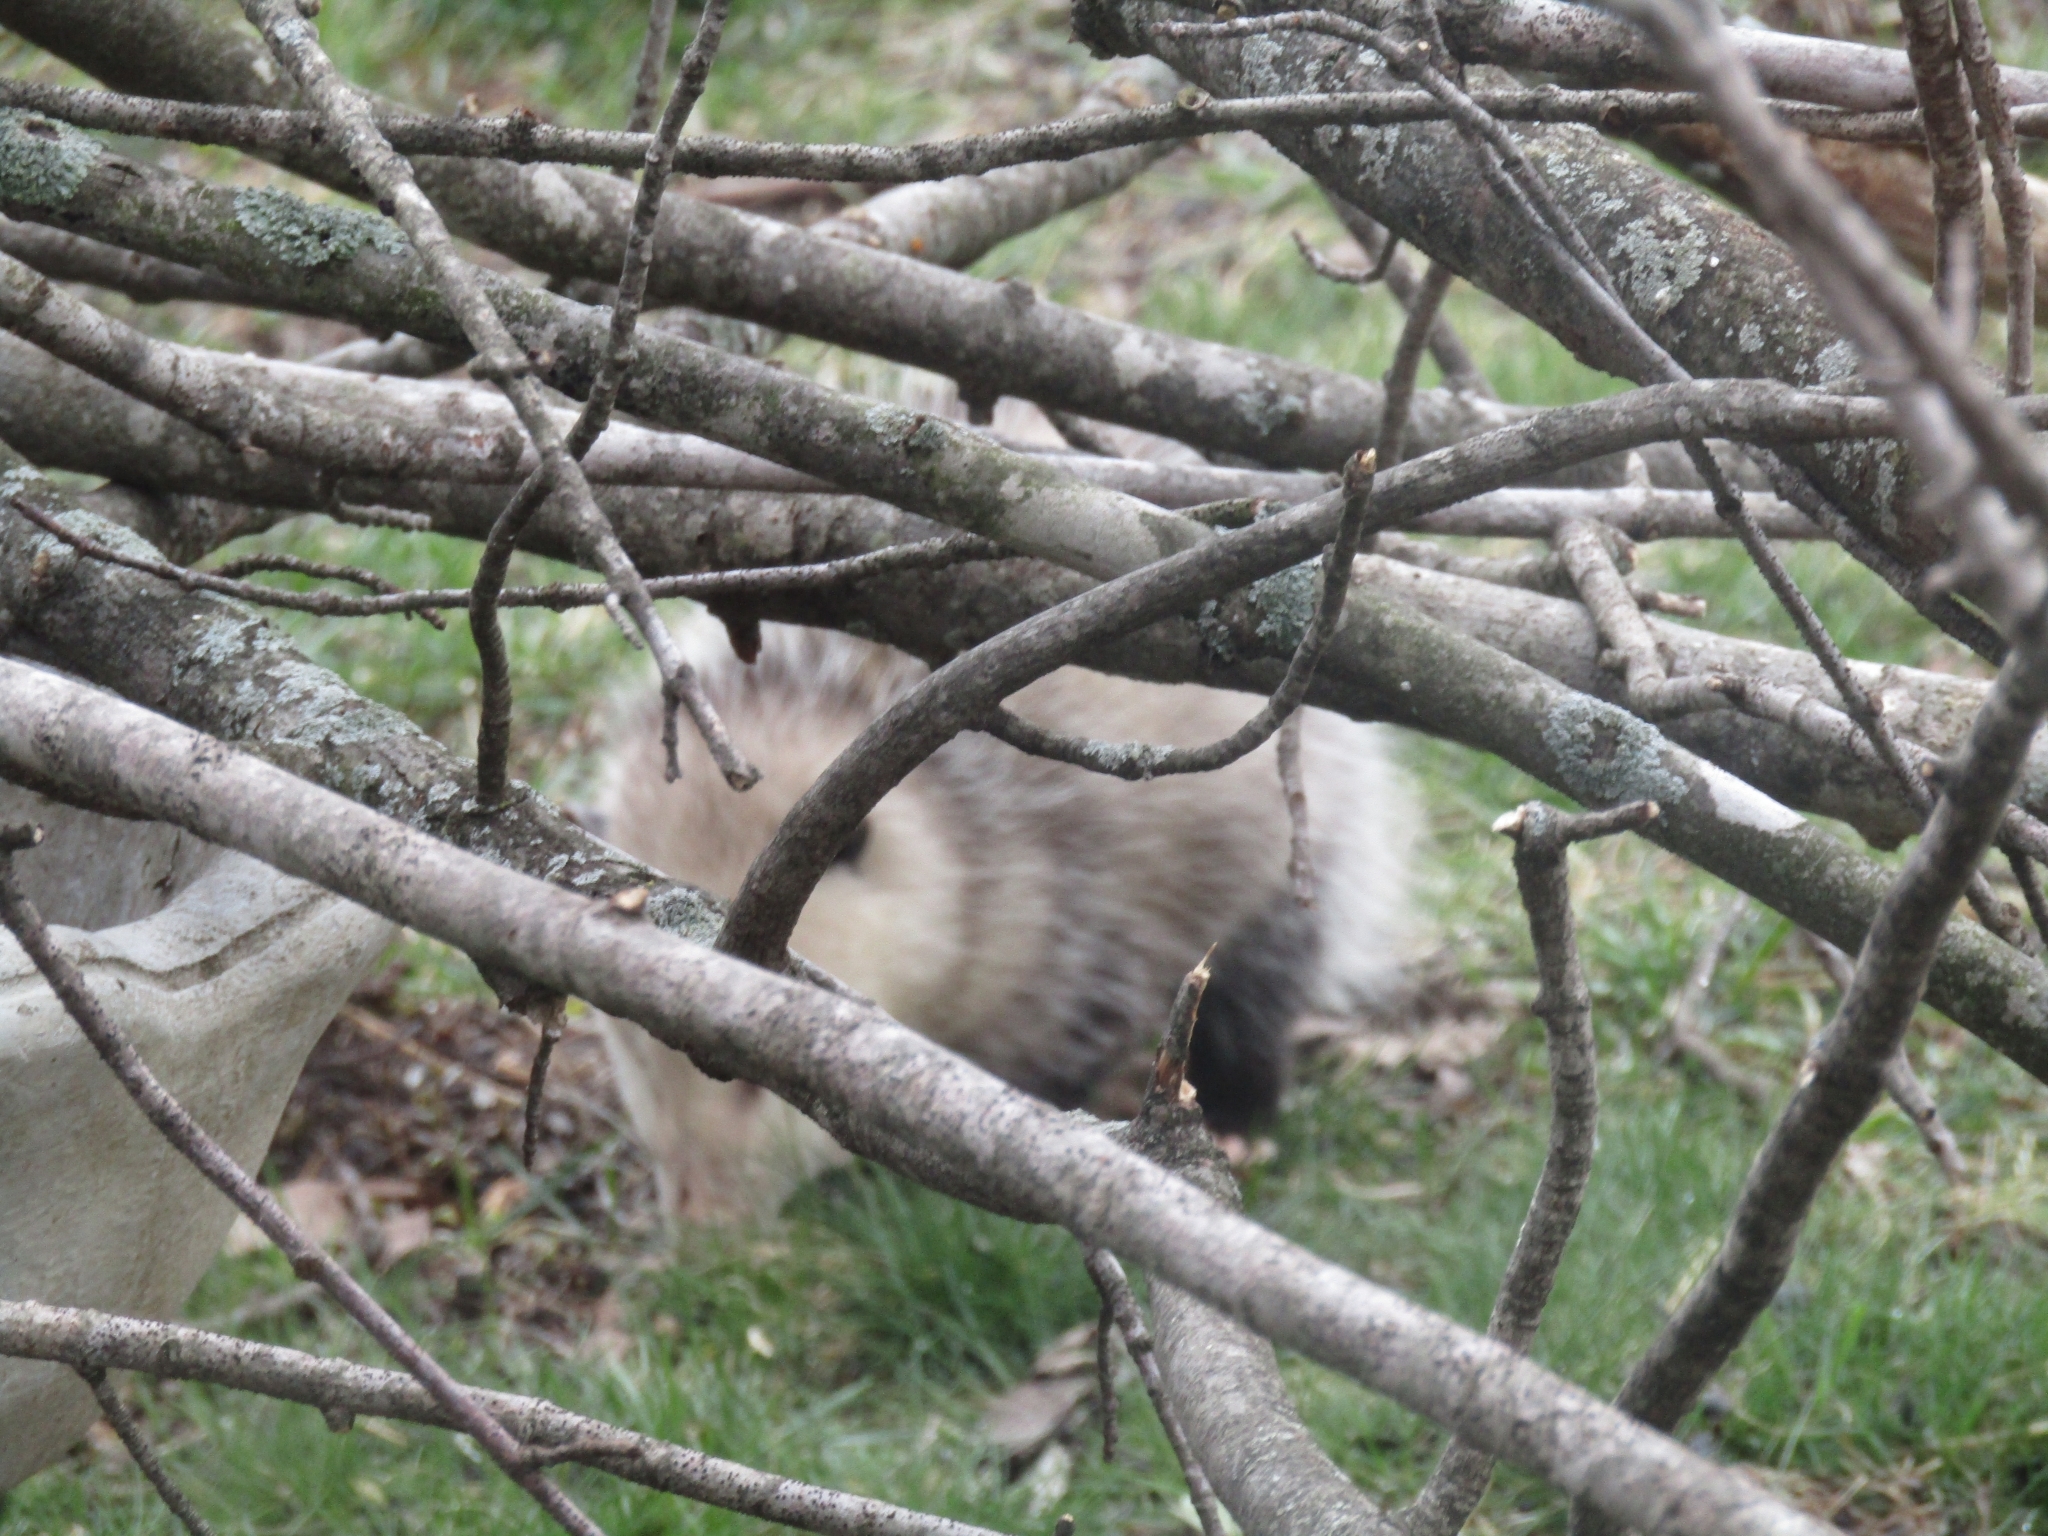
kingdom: Animalia
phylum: Chordata
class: Mammalia
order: Didelphimorphia
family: Didelphidae
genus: Didelphis
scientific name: Didelphis virginiana
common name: Virginia opossum
